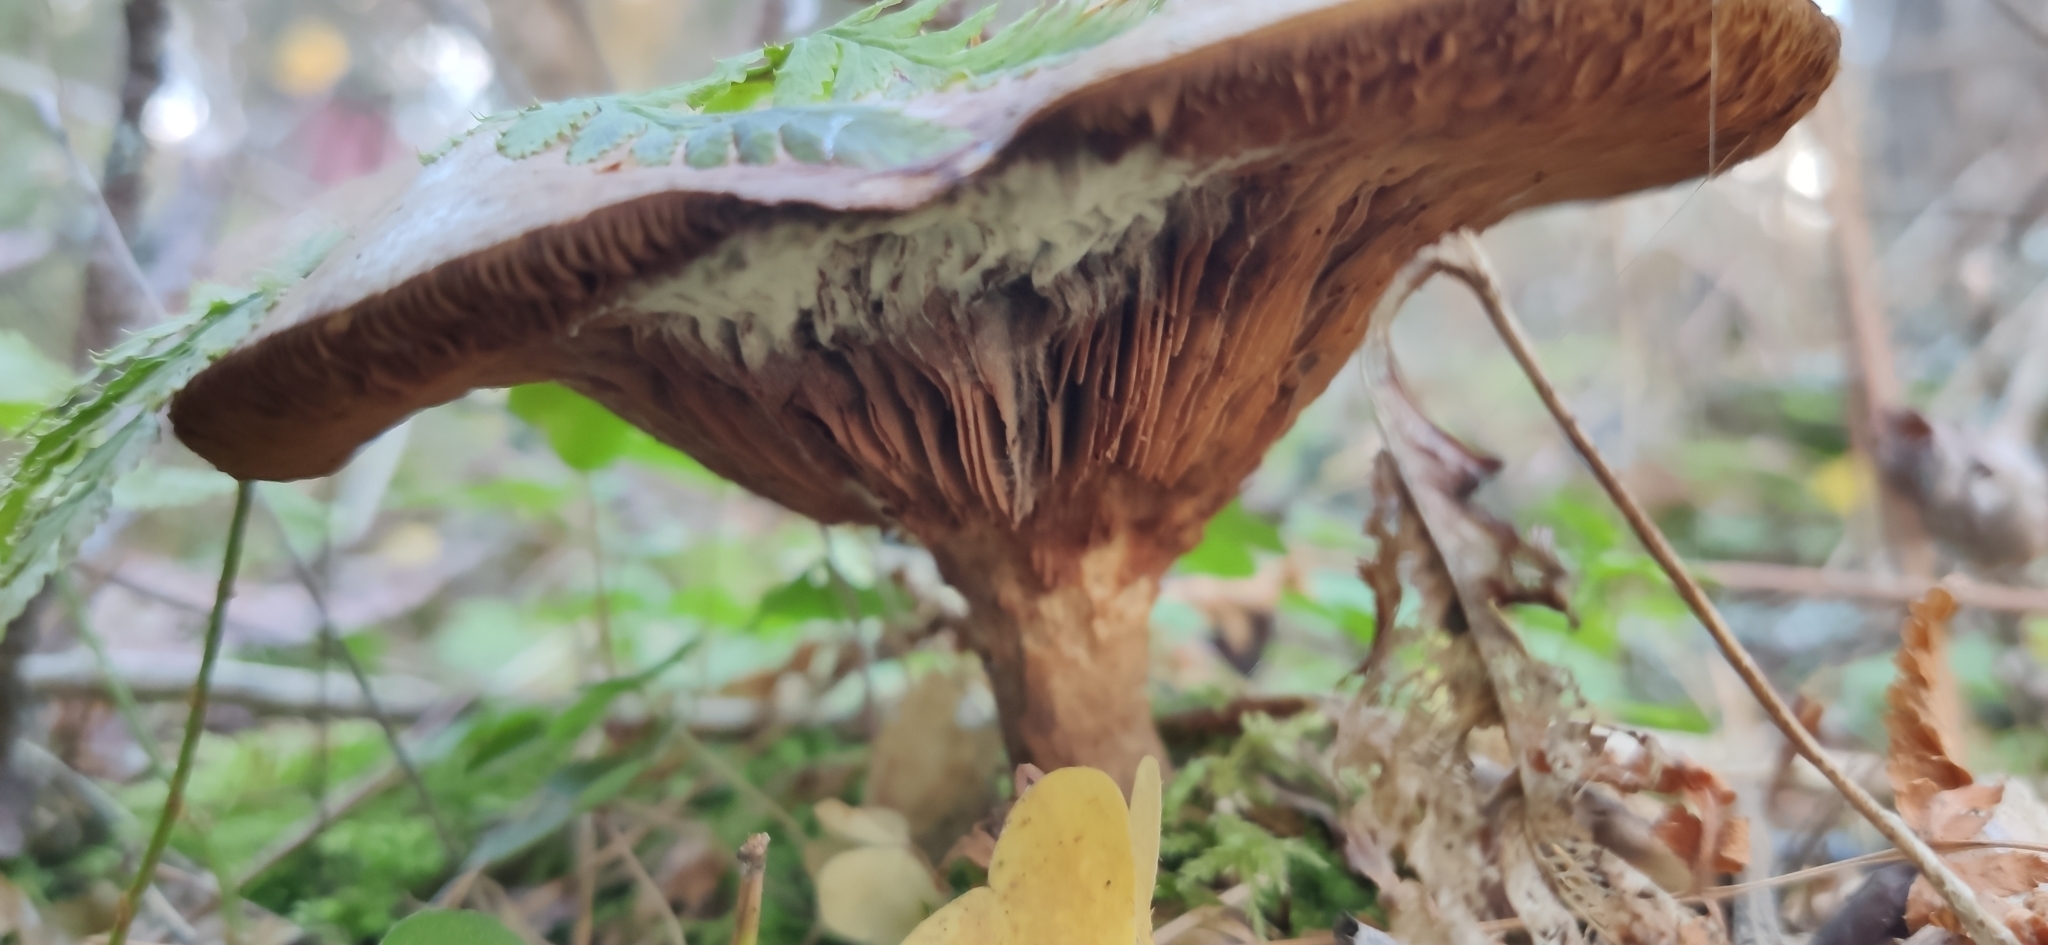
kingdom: Fungi
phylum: Basidiomycota
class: Agaricomycetes
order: Boletales
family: Paxillaceae
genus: Paxillus
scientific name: Paxillus involutus
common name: Brown roll rim
